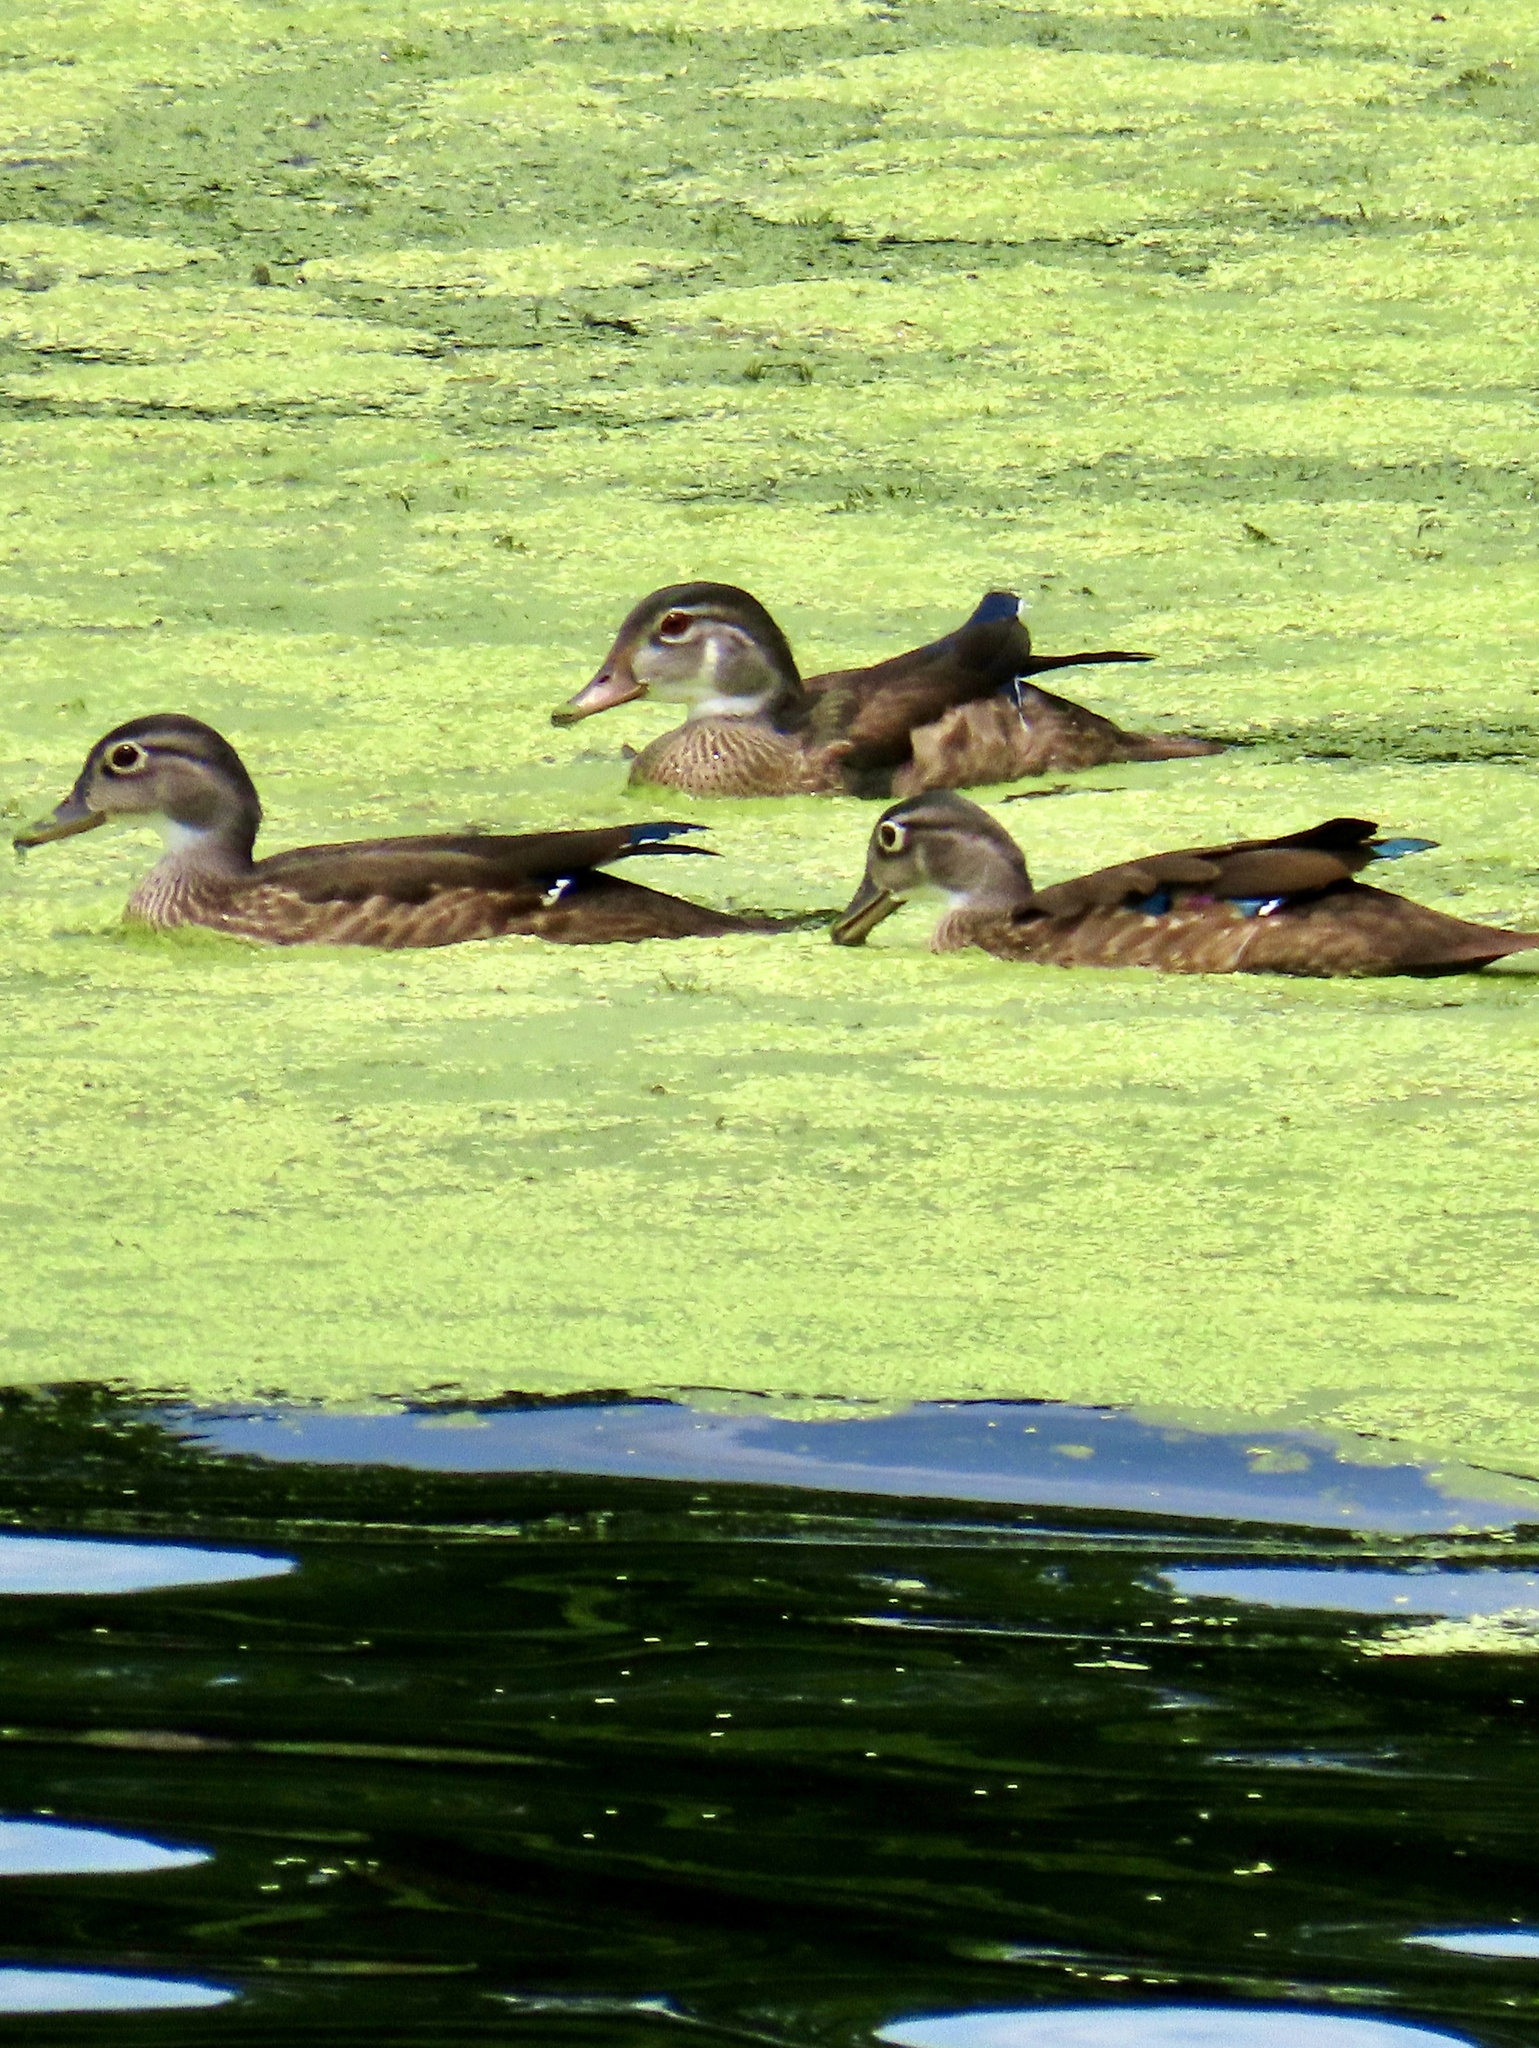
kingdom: Animalia
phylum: Chordata
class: Aves
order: Anseriformes
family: Anatidae
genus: Aix
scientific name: Aix sponsa
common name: Wood duck
